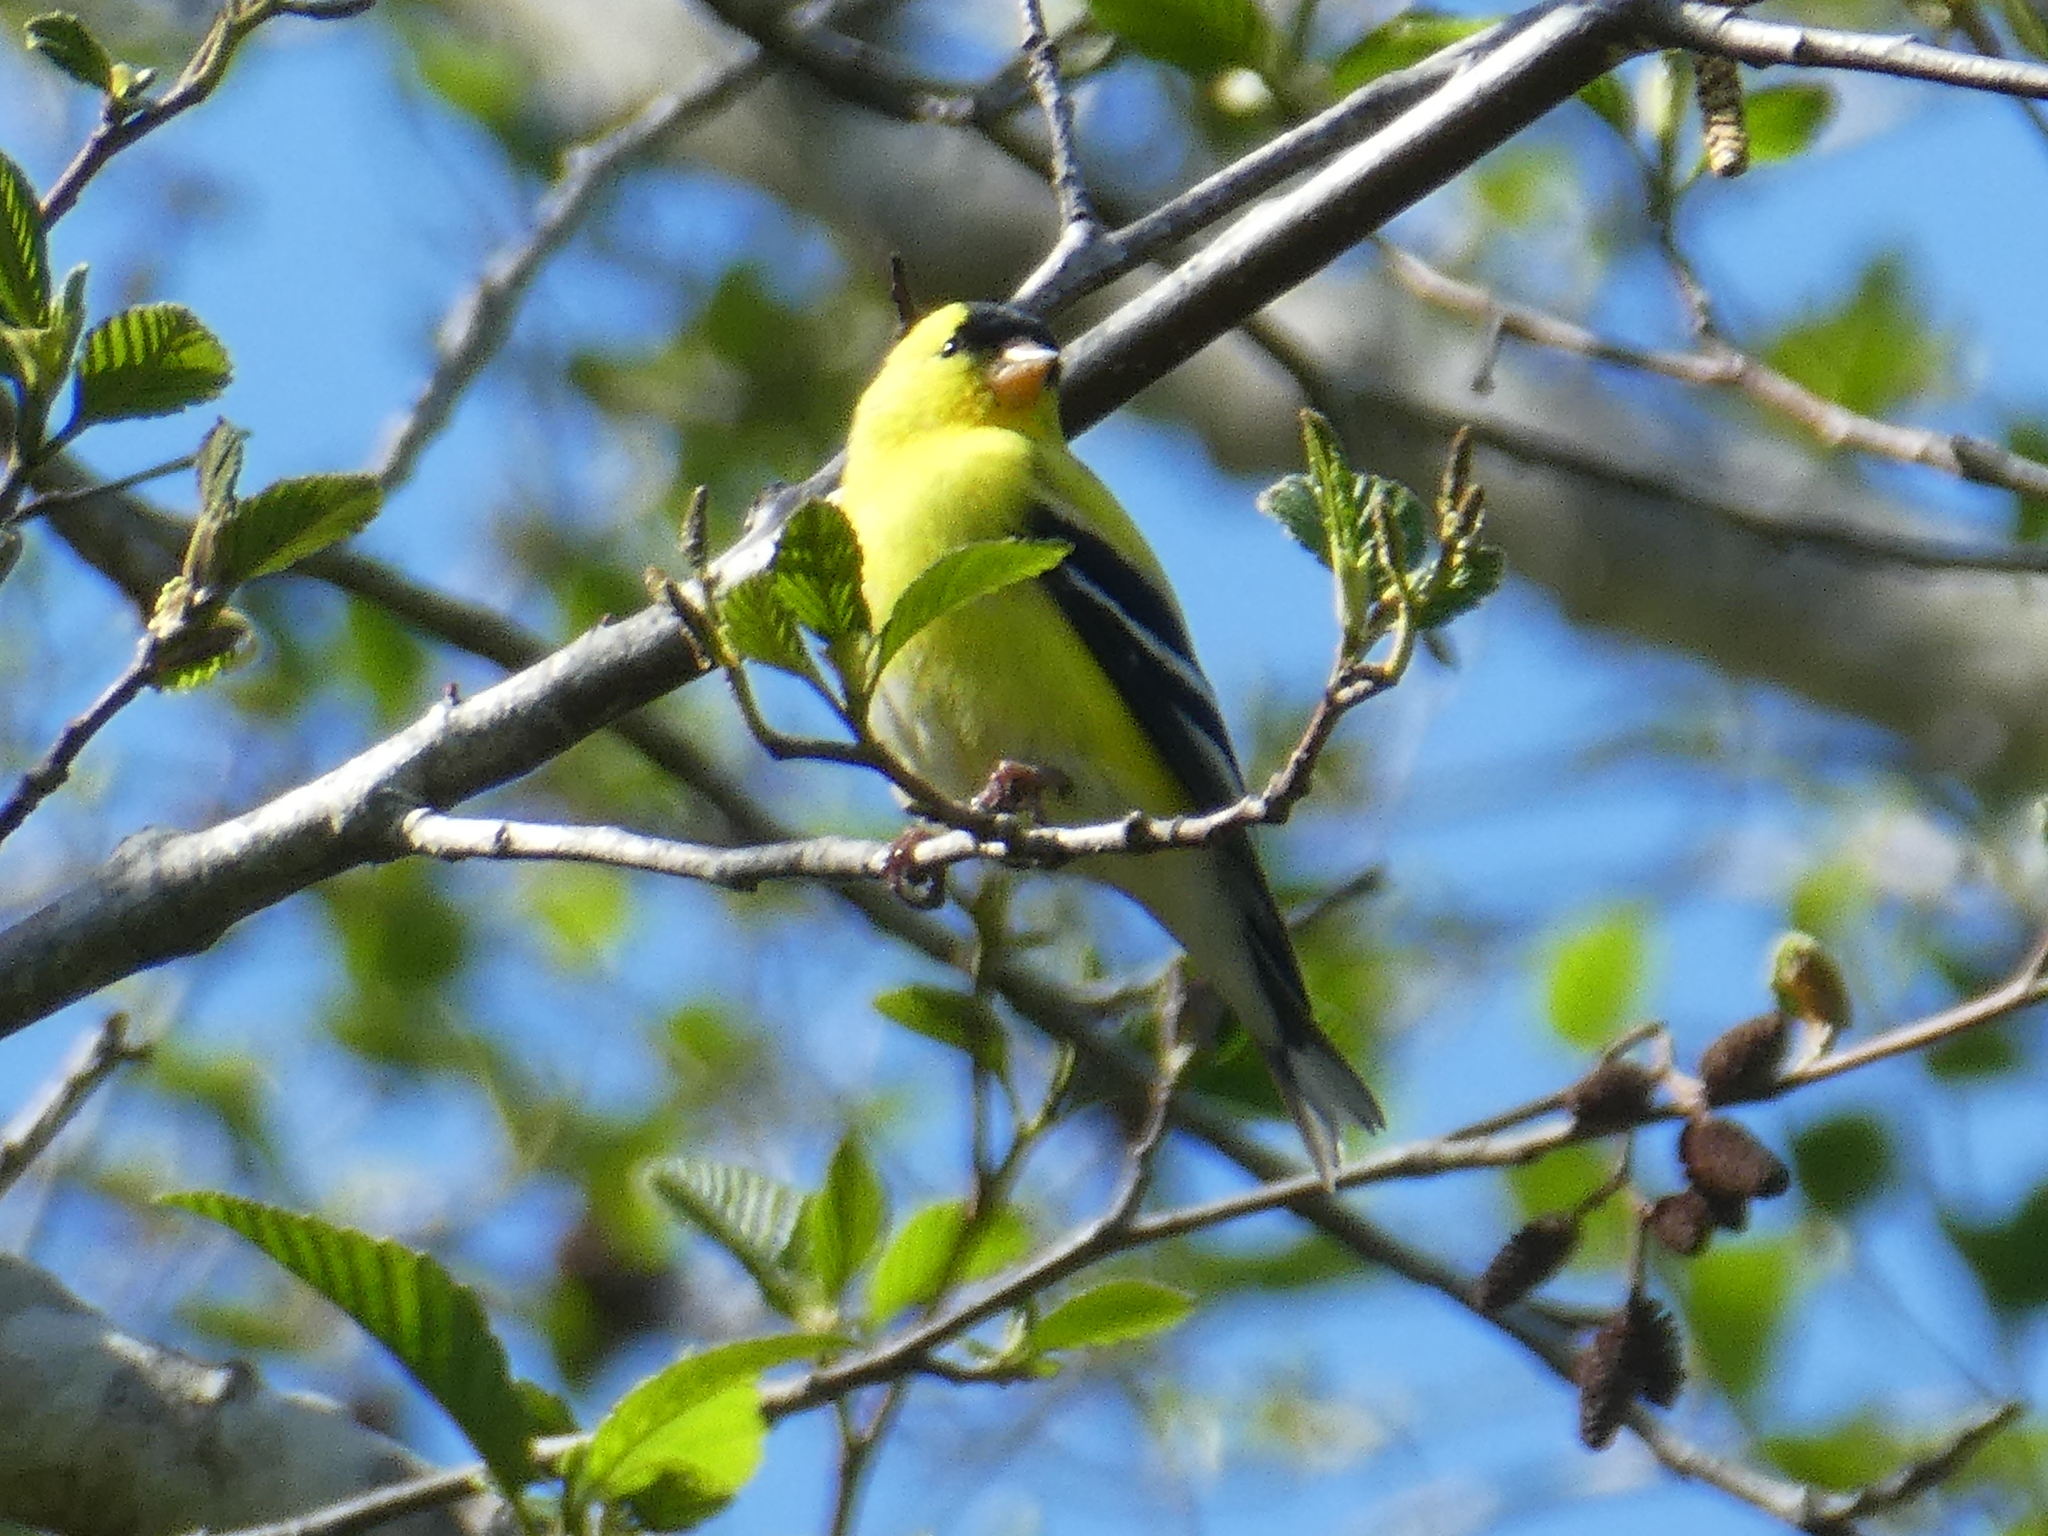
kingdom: Animalia
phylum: Chordata
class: Aves
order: Passeriformes
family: Fringillidae
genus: Spinus
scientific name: Spinus tristis
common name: American goldfinch
